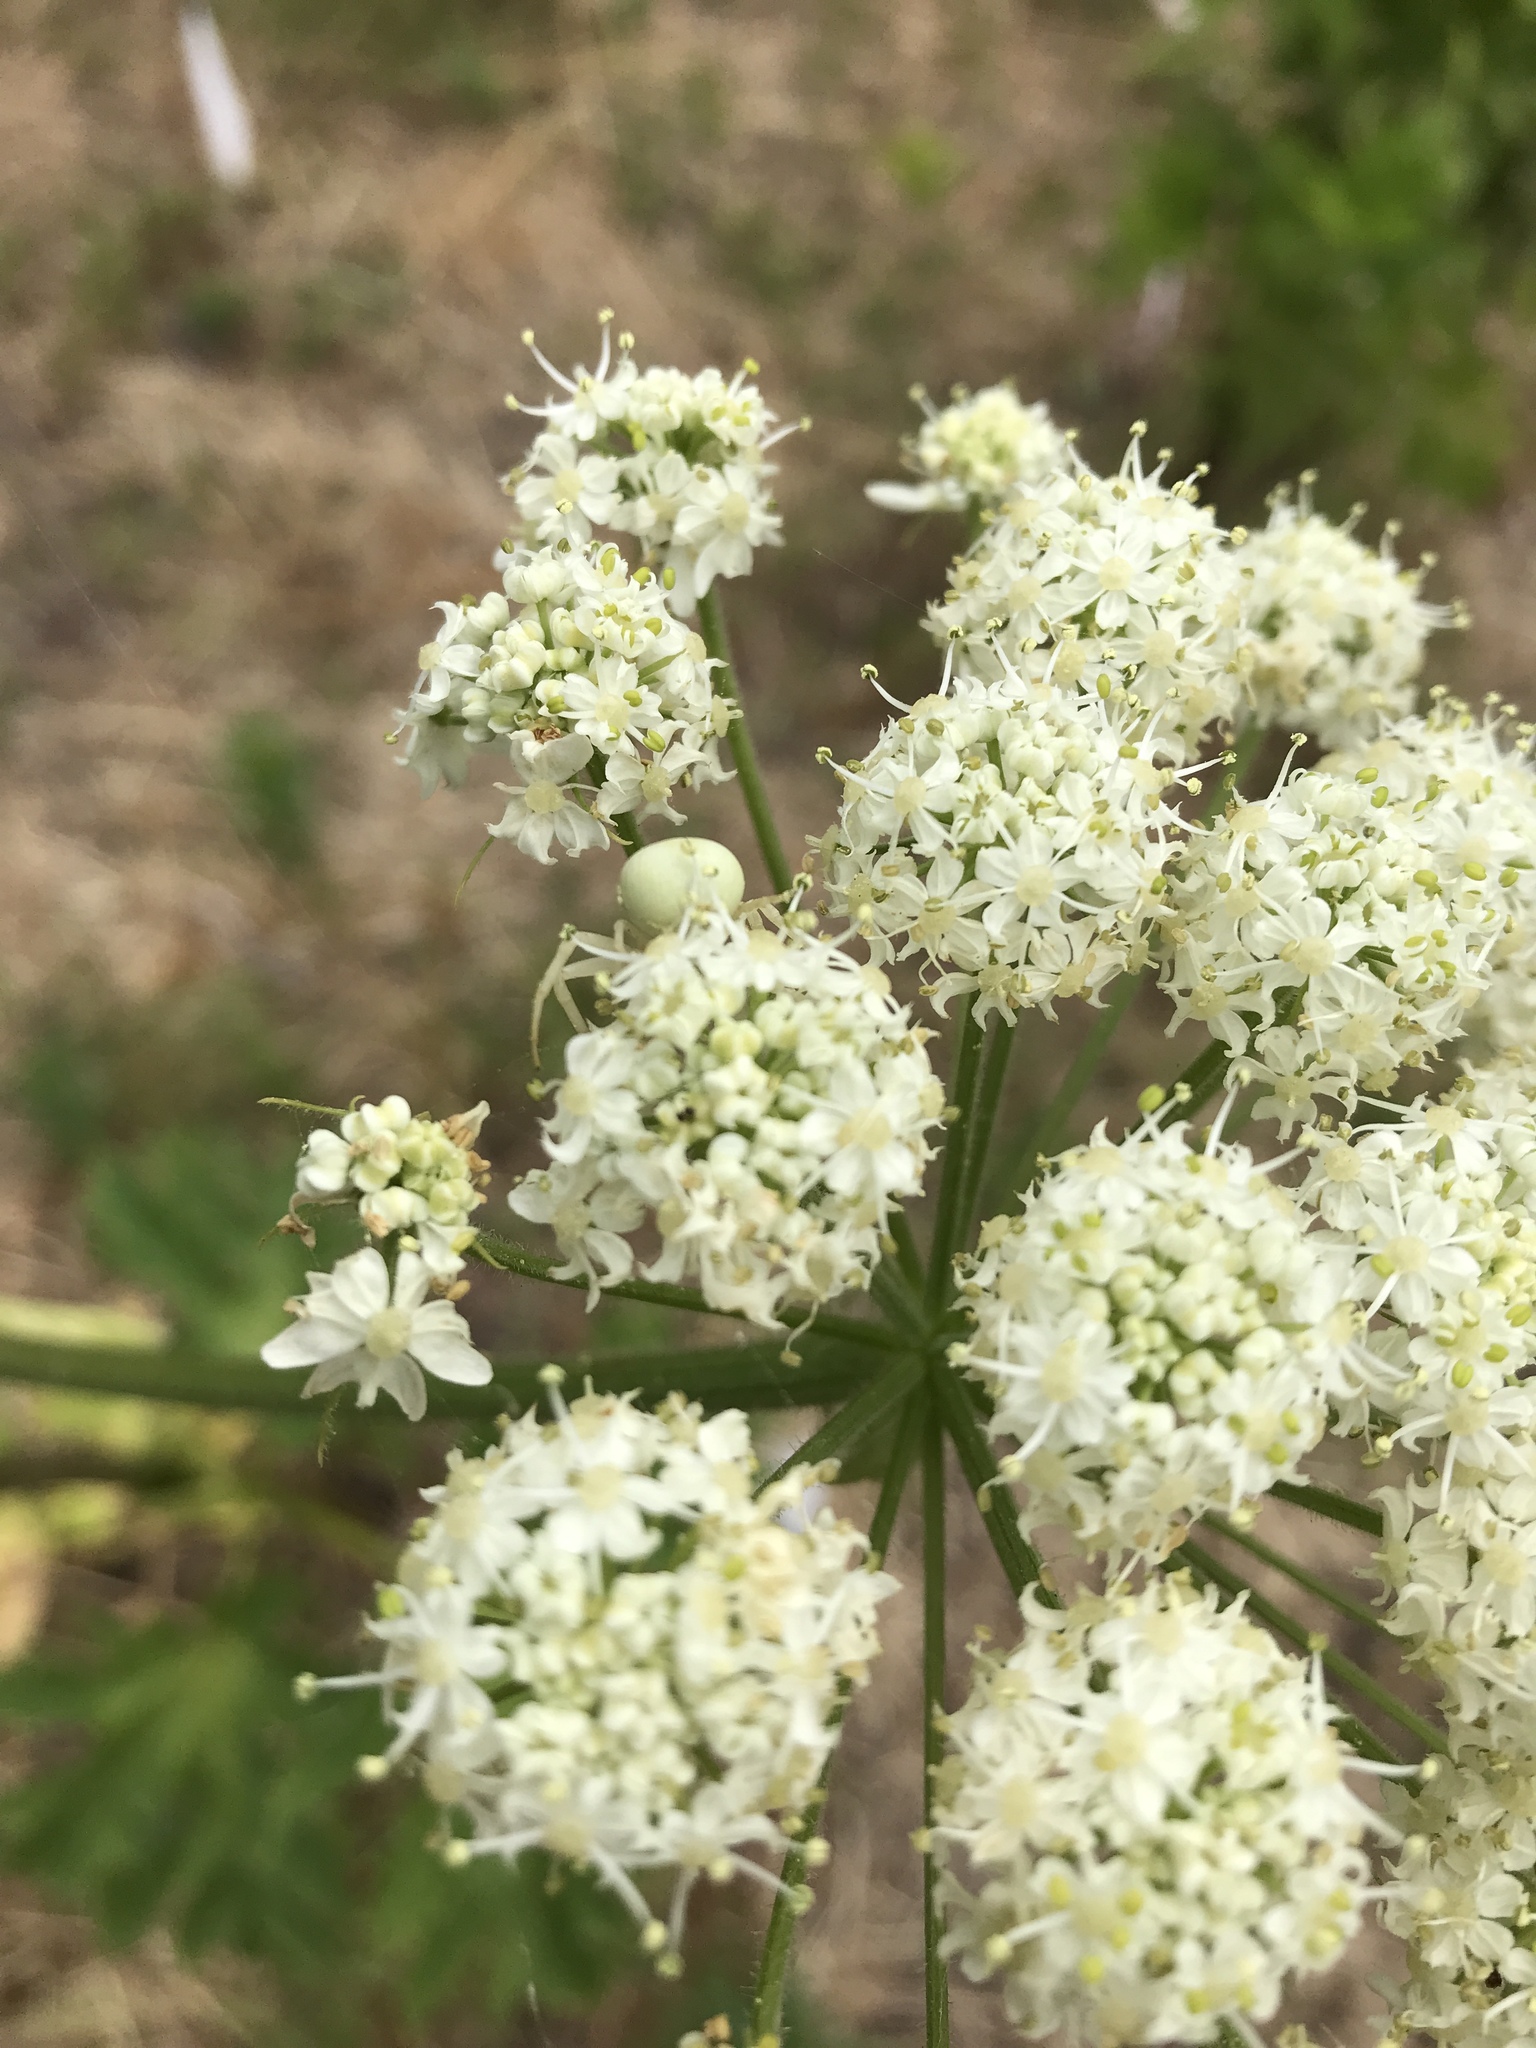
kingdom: Animalia
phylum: Arthropoda
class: Arachnida
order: Araneae
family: Thomisidae
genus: Misumena
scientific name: Misumena vatia
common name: Goldenrod crab spider
